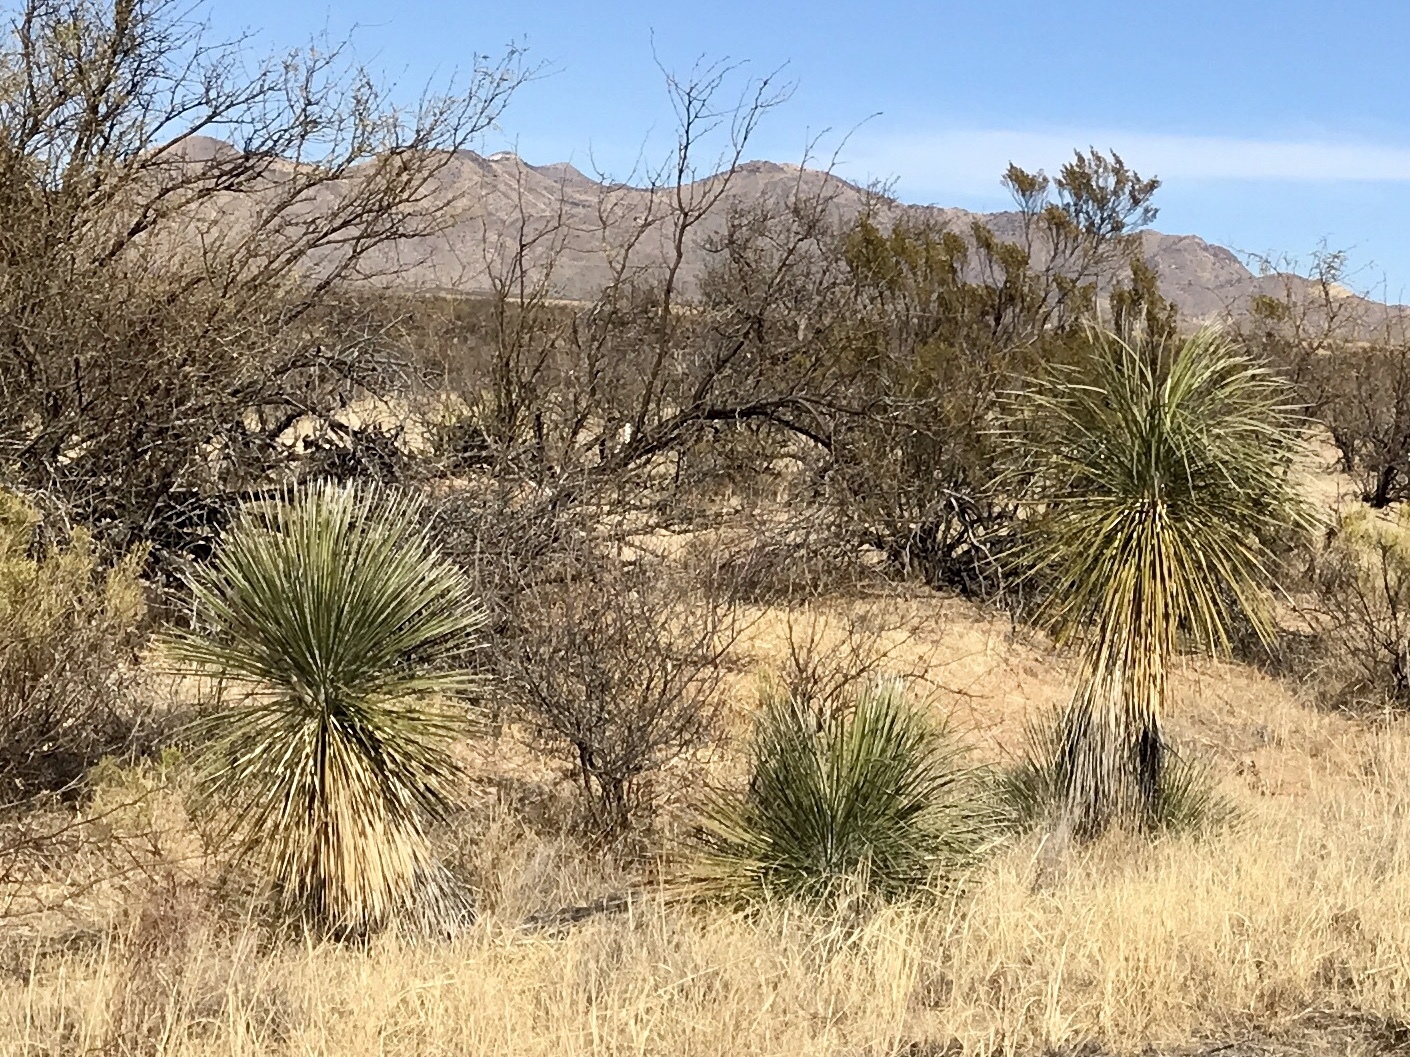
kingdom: Plantae
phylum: Tracheophyta
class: Liliopsida
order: Asparagales
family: Asparagaceae
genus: Yucca
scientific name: Yucca elata
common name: Palmella
